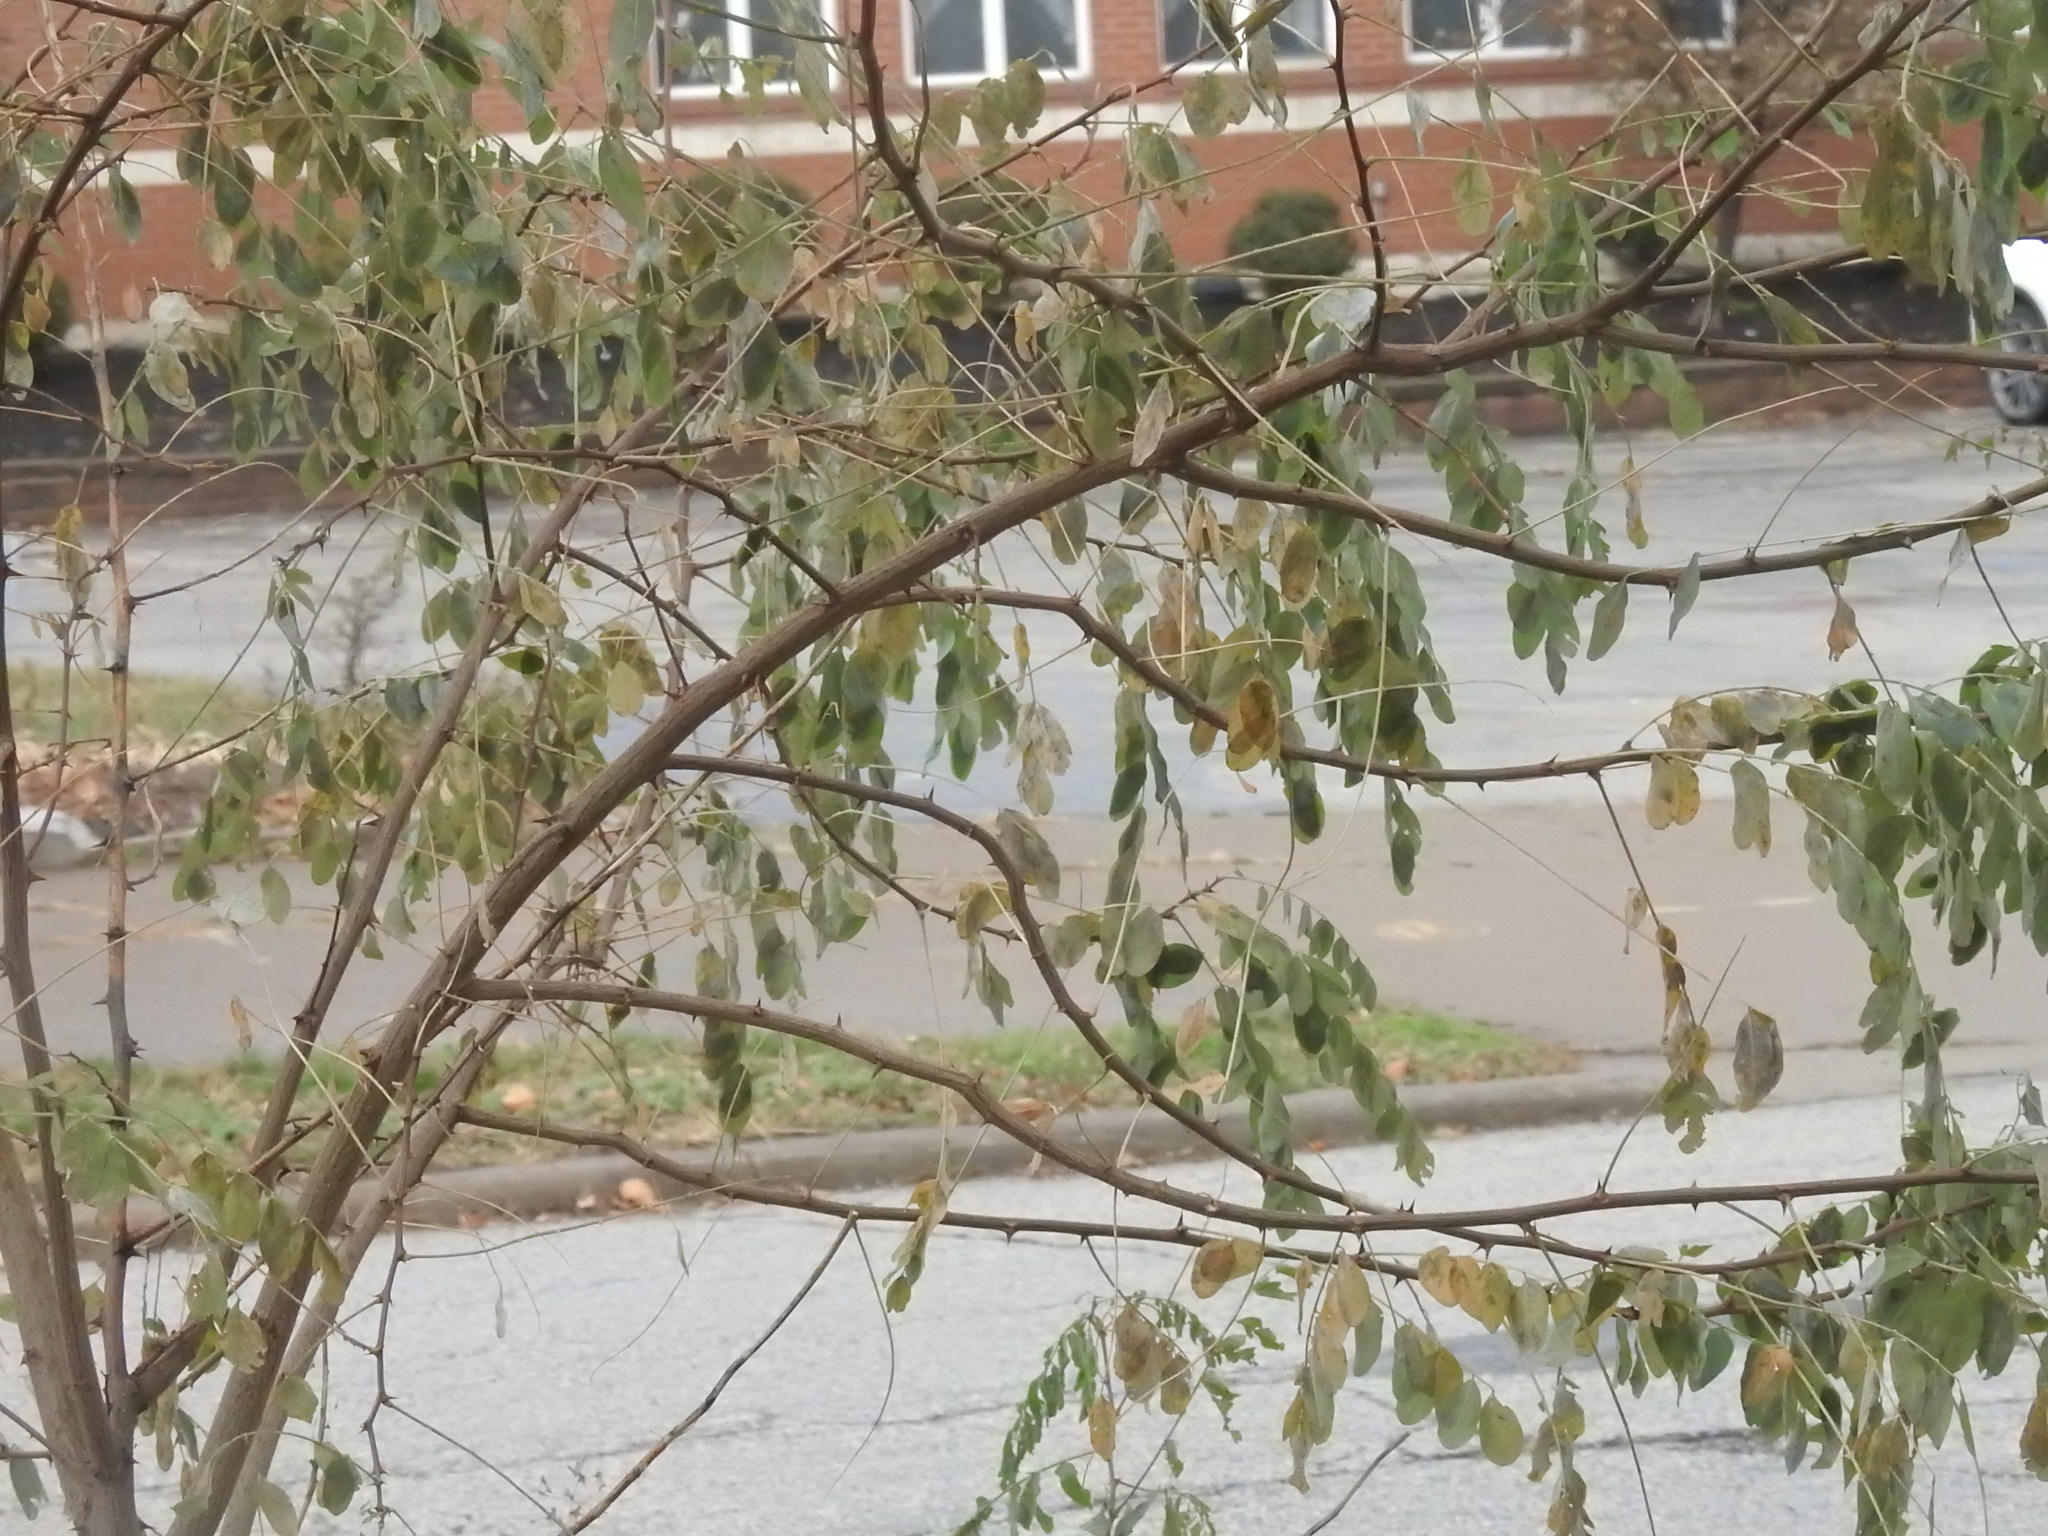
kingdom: Plantae
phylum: Tracheophyta
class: Magnoliopsida
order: Fabales
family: Fabaceae
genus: Robinia
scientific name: Robinia pseudoacacia
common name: Black locust
